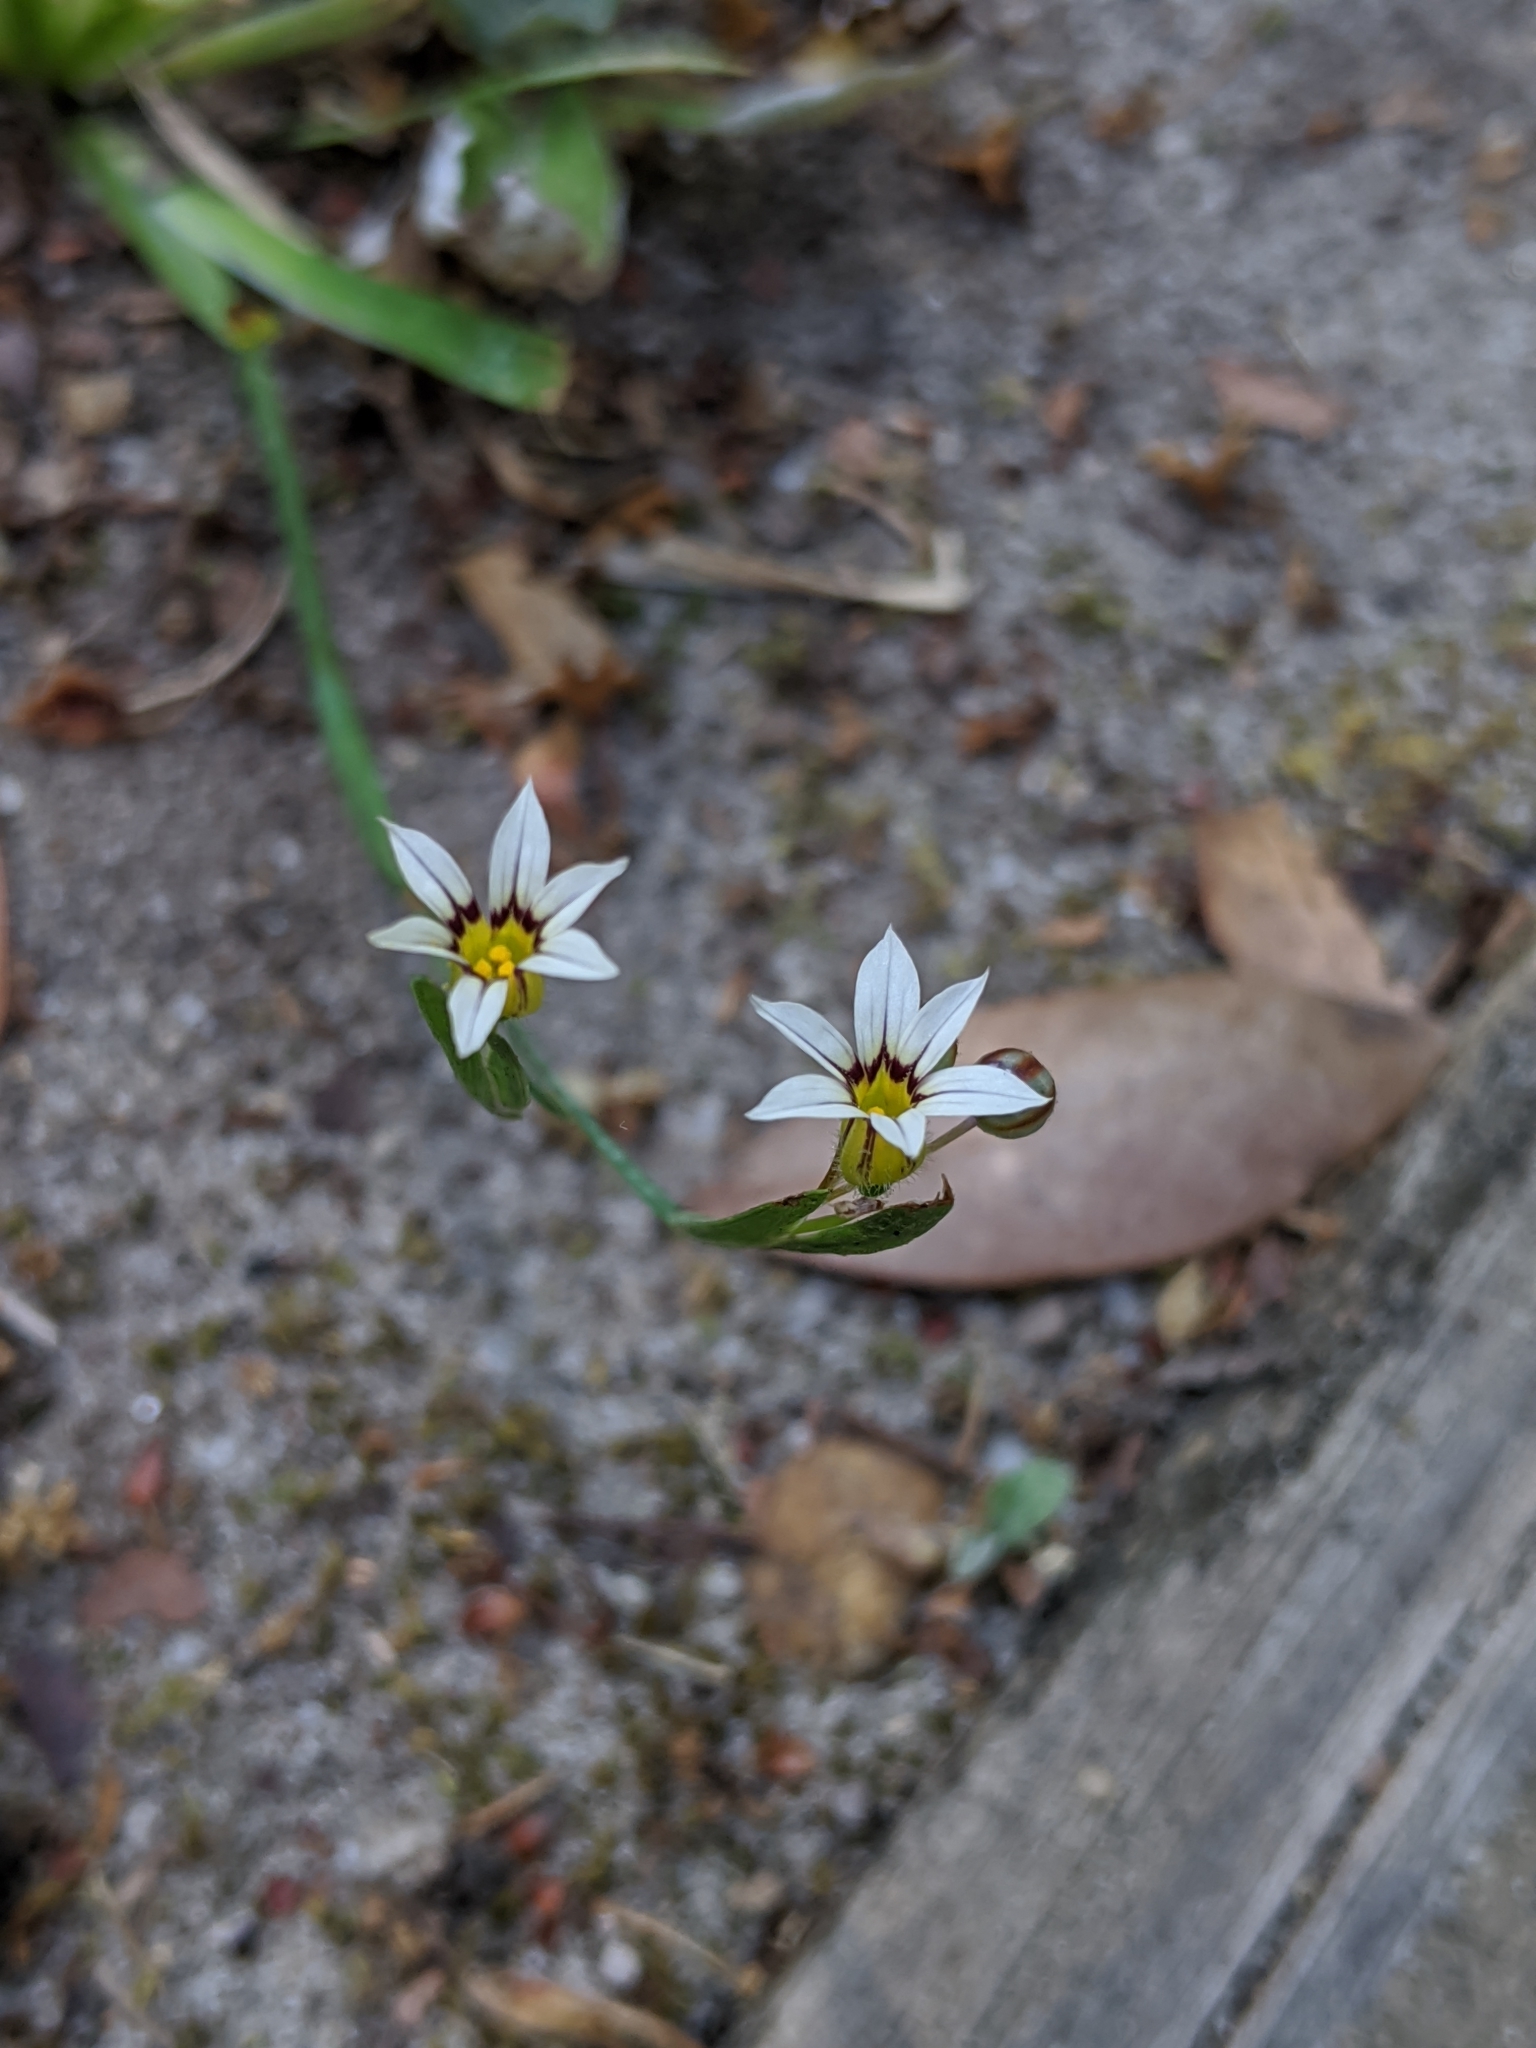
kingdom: Plantae
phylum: Tracheophyta
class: Liliopsida
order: Asparagales
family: Iridaceae
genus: Sisyrinchium
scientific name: Sisyrinchium micranthum
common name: Bermuda pigroot
